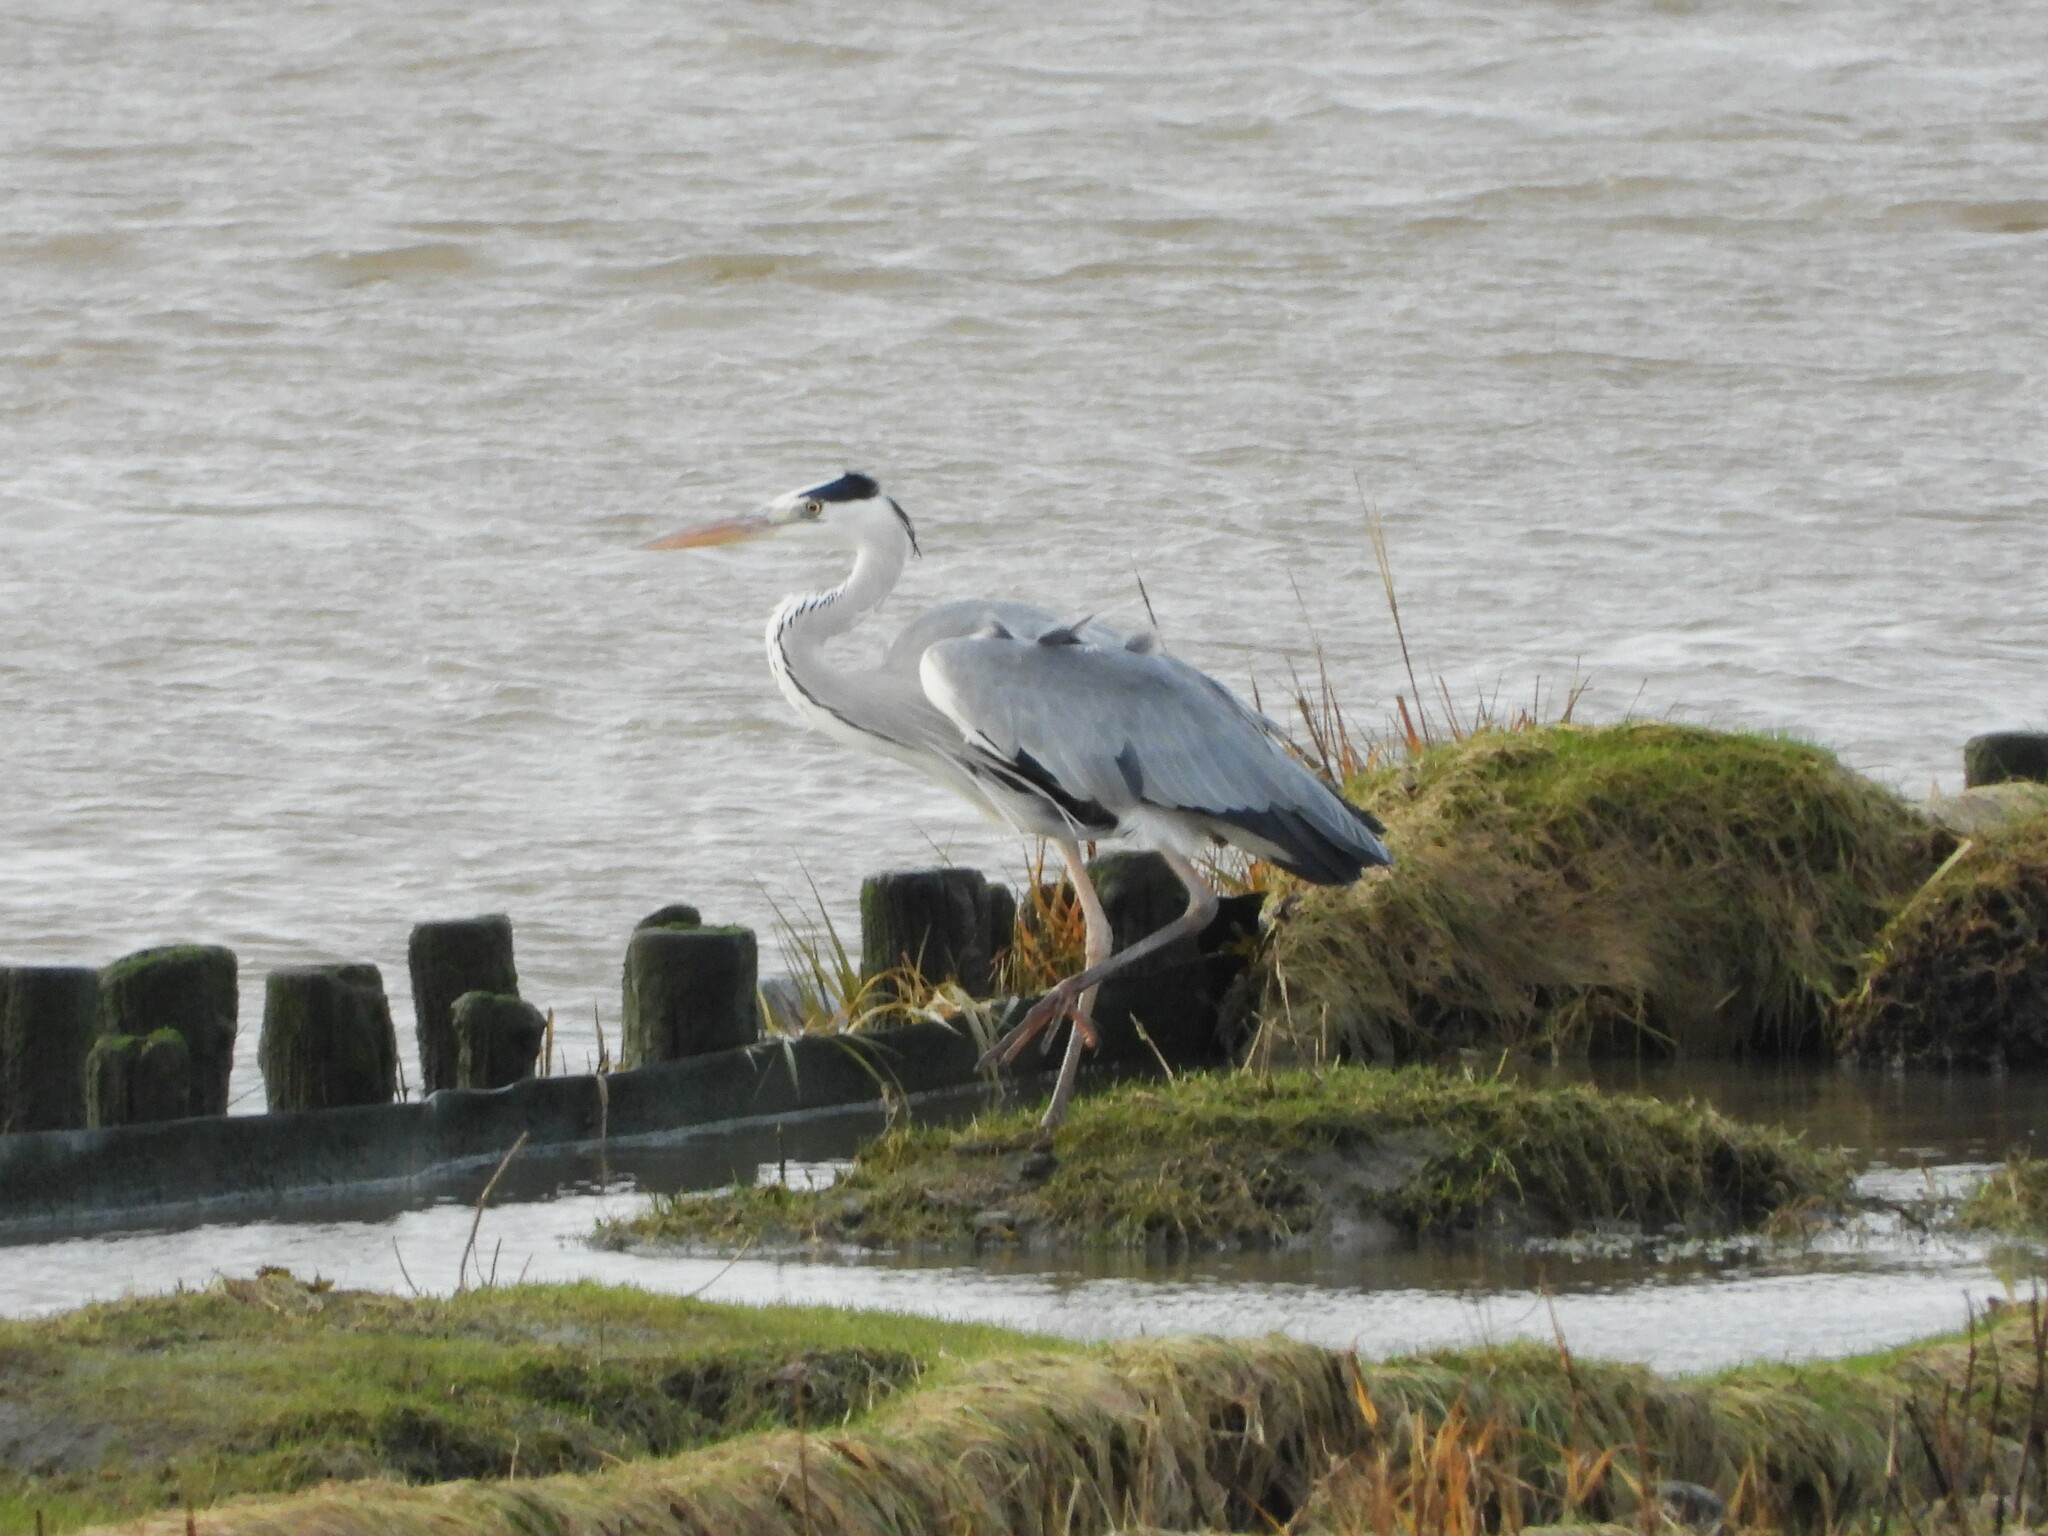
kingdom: Animalia
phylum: Chordata
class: Aves
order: Pelecaniformes
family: Ardeidae
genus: Ardea
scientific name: Ardea cinerea
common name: Grey heron
